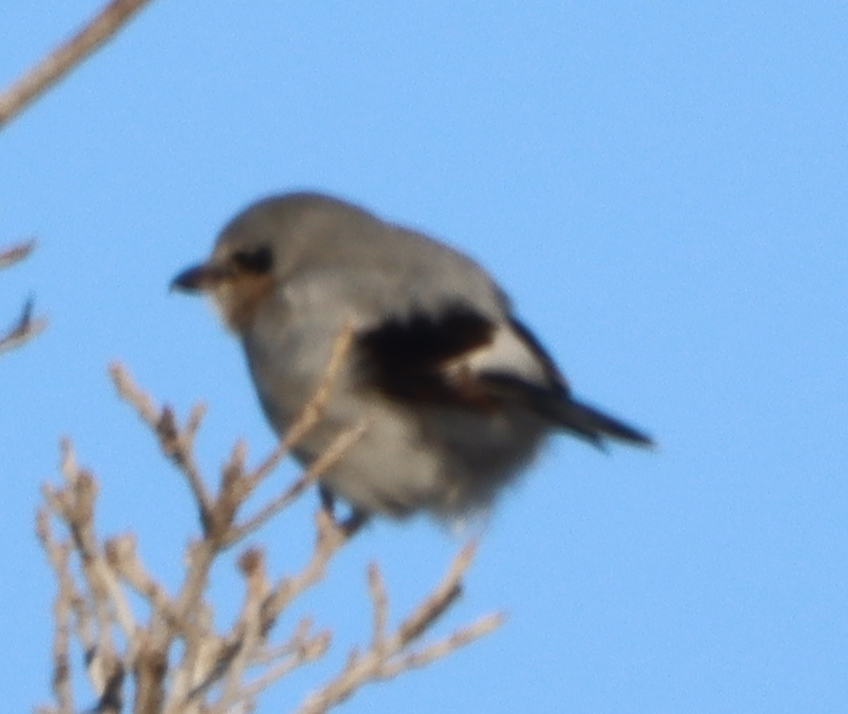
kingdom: Animalia
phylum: Chordata
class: Aves
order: Passeriformes
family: Laniidae
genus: Lanius
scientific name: Lanius borealis
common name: Northern shrike
